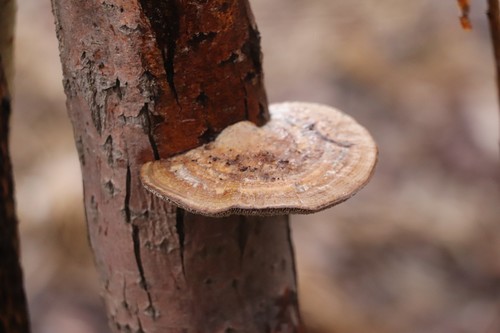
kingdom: Fungi
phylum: Basidiomycota
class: Agaricomycetes
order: Polyporales
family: Polyporaceae
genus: Daedaleopsis
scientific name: Daedaleopsis confragosa
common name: Blushing bracket
